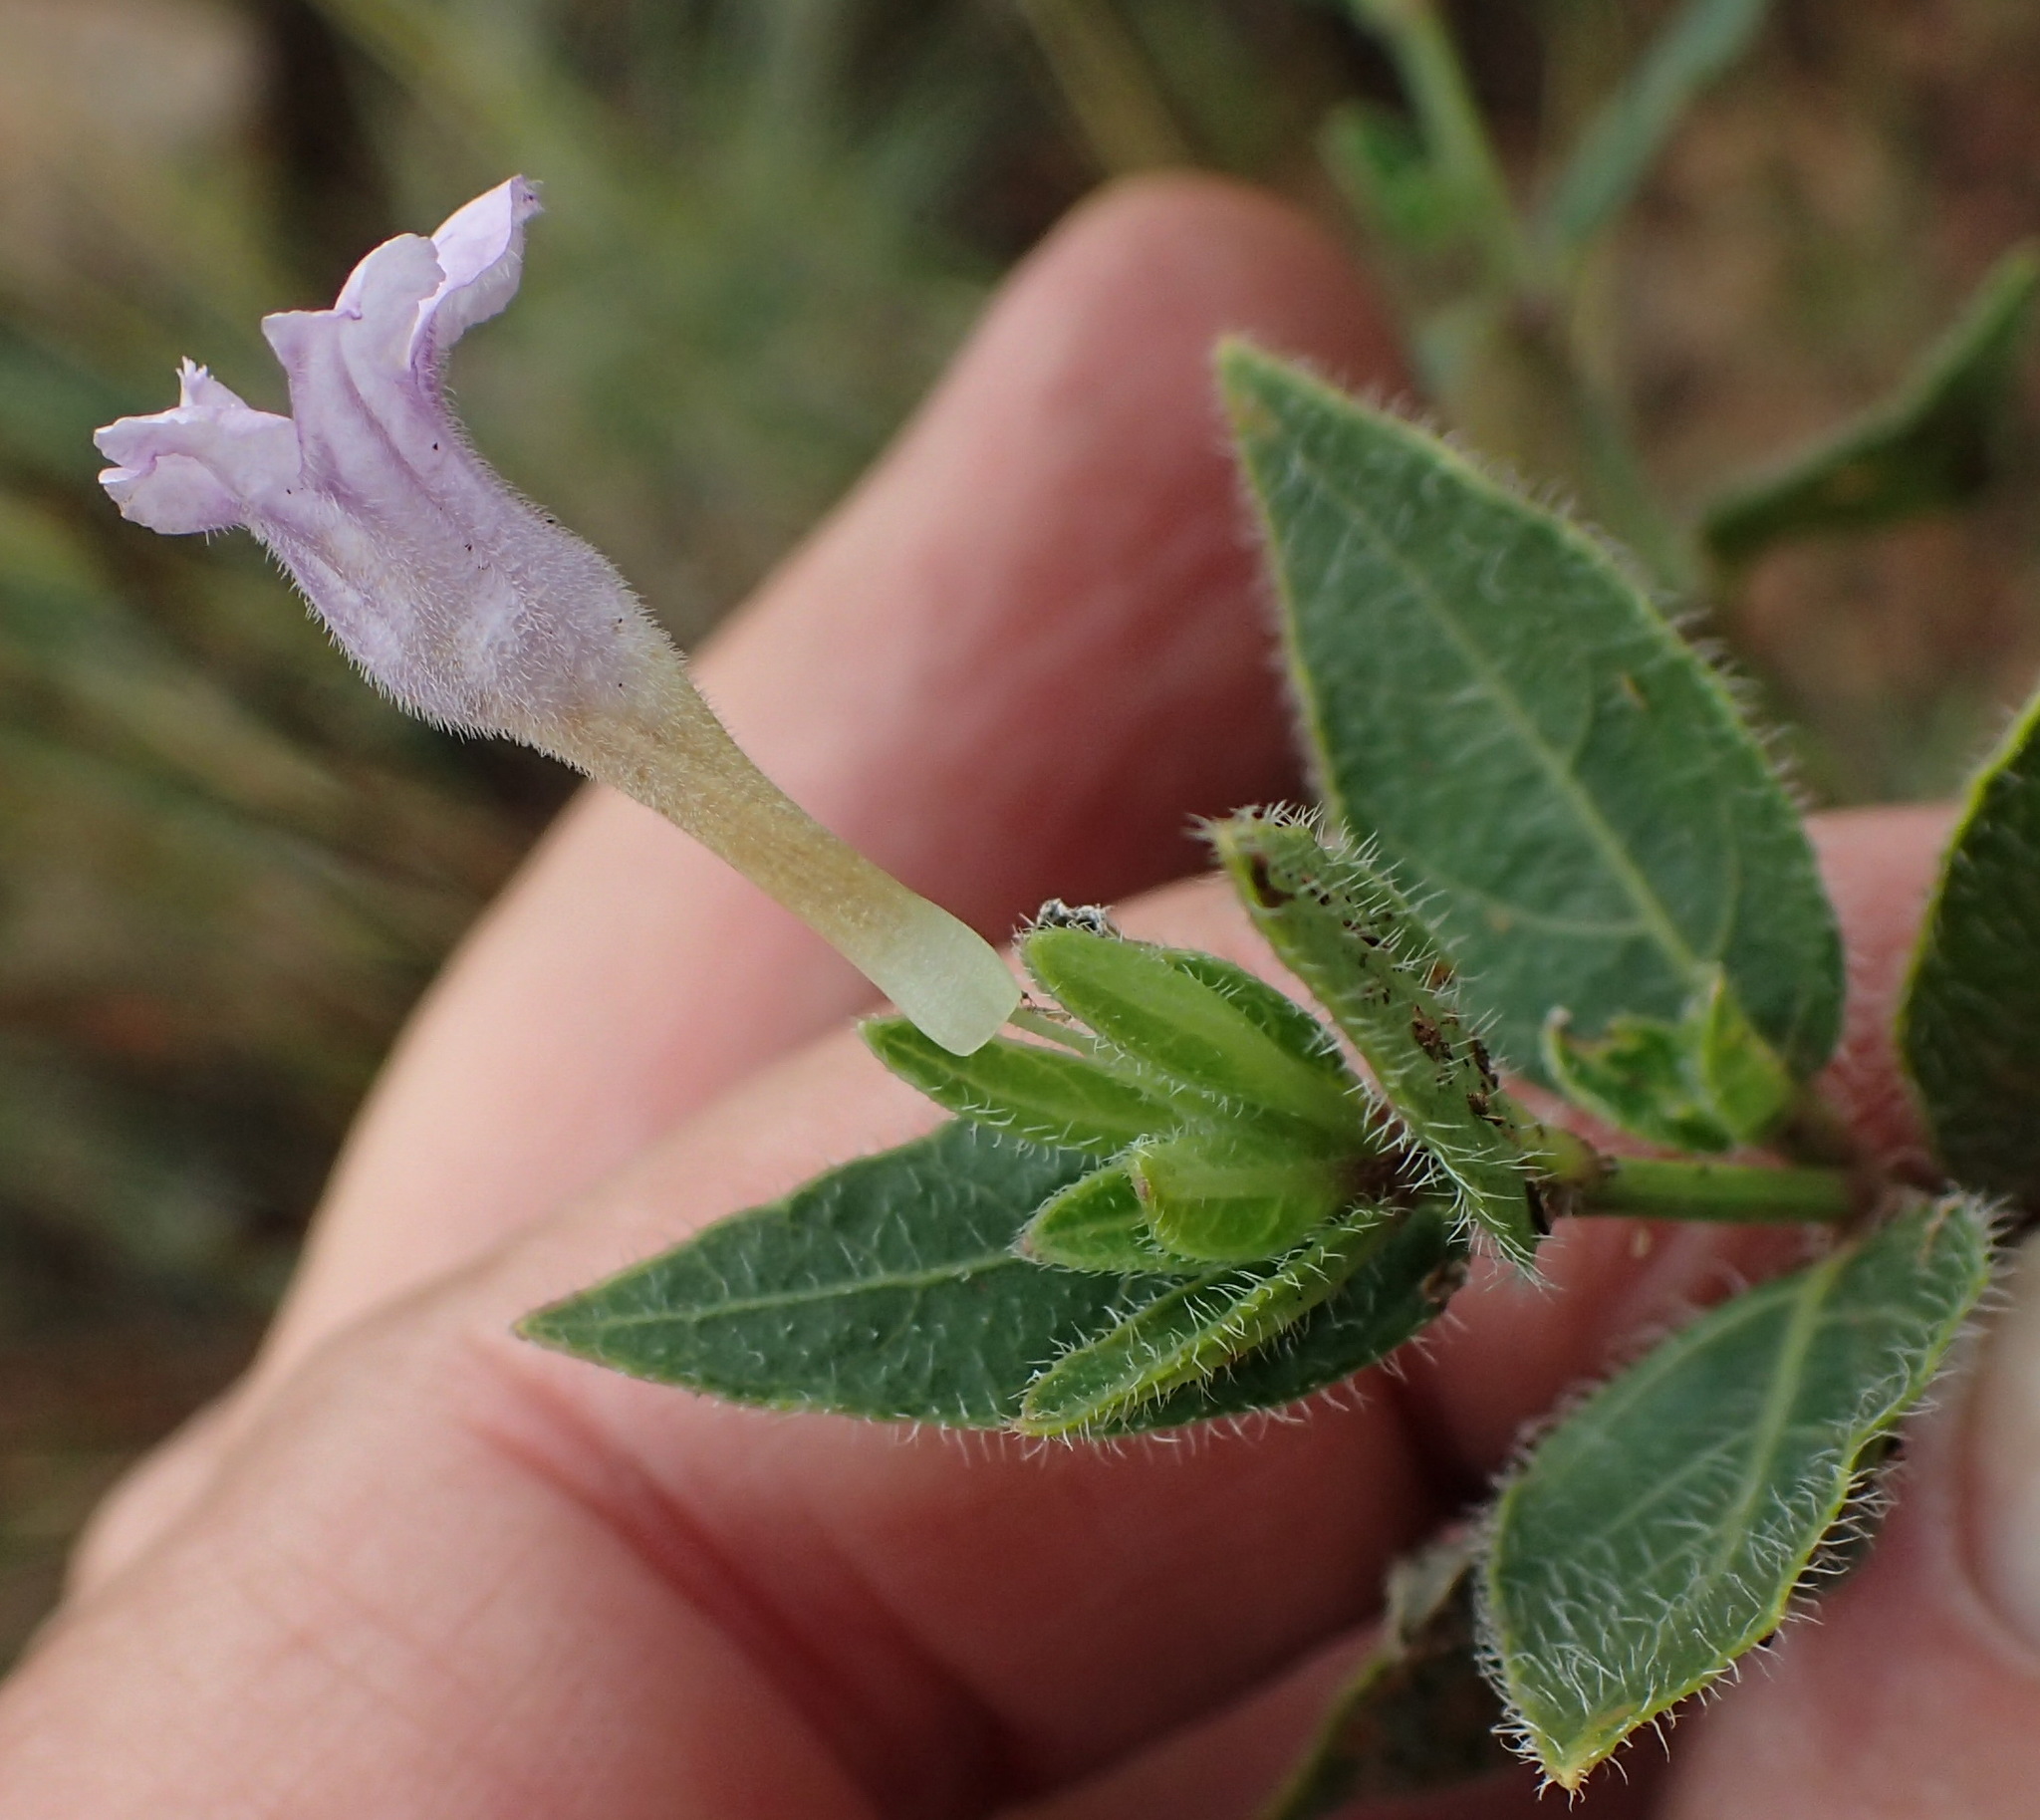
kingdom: Plantae
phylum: Tracheophyta
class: Magnoliopsida
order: Lamiales
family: Acanthaceae
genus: Ruellia
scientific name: Ruellia cordata
